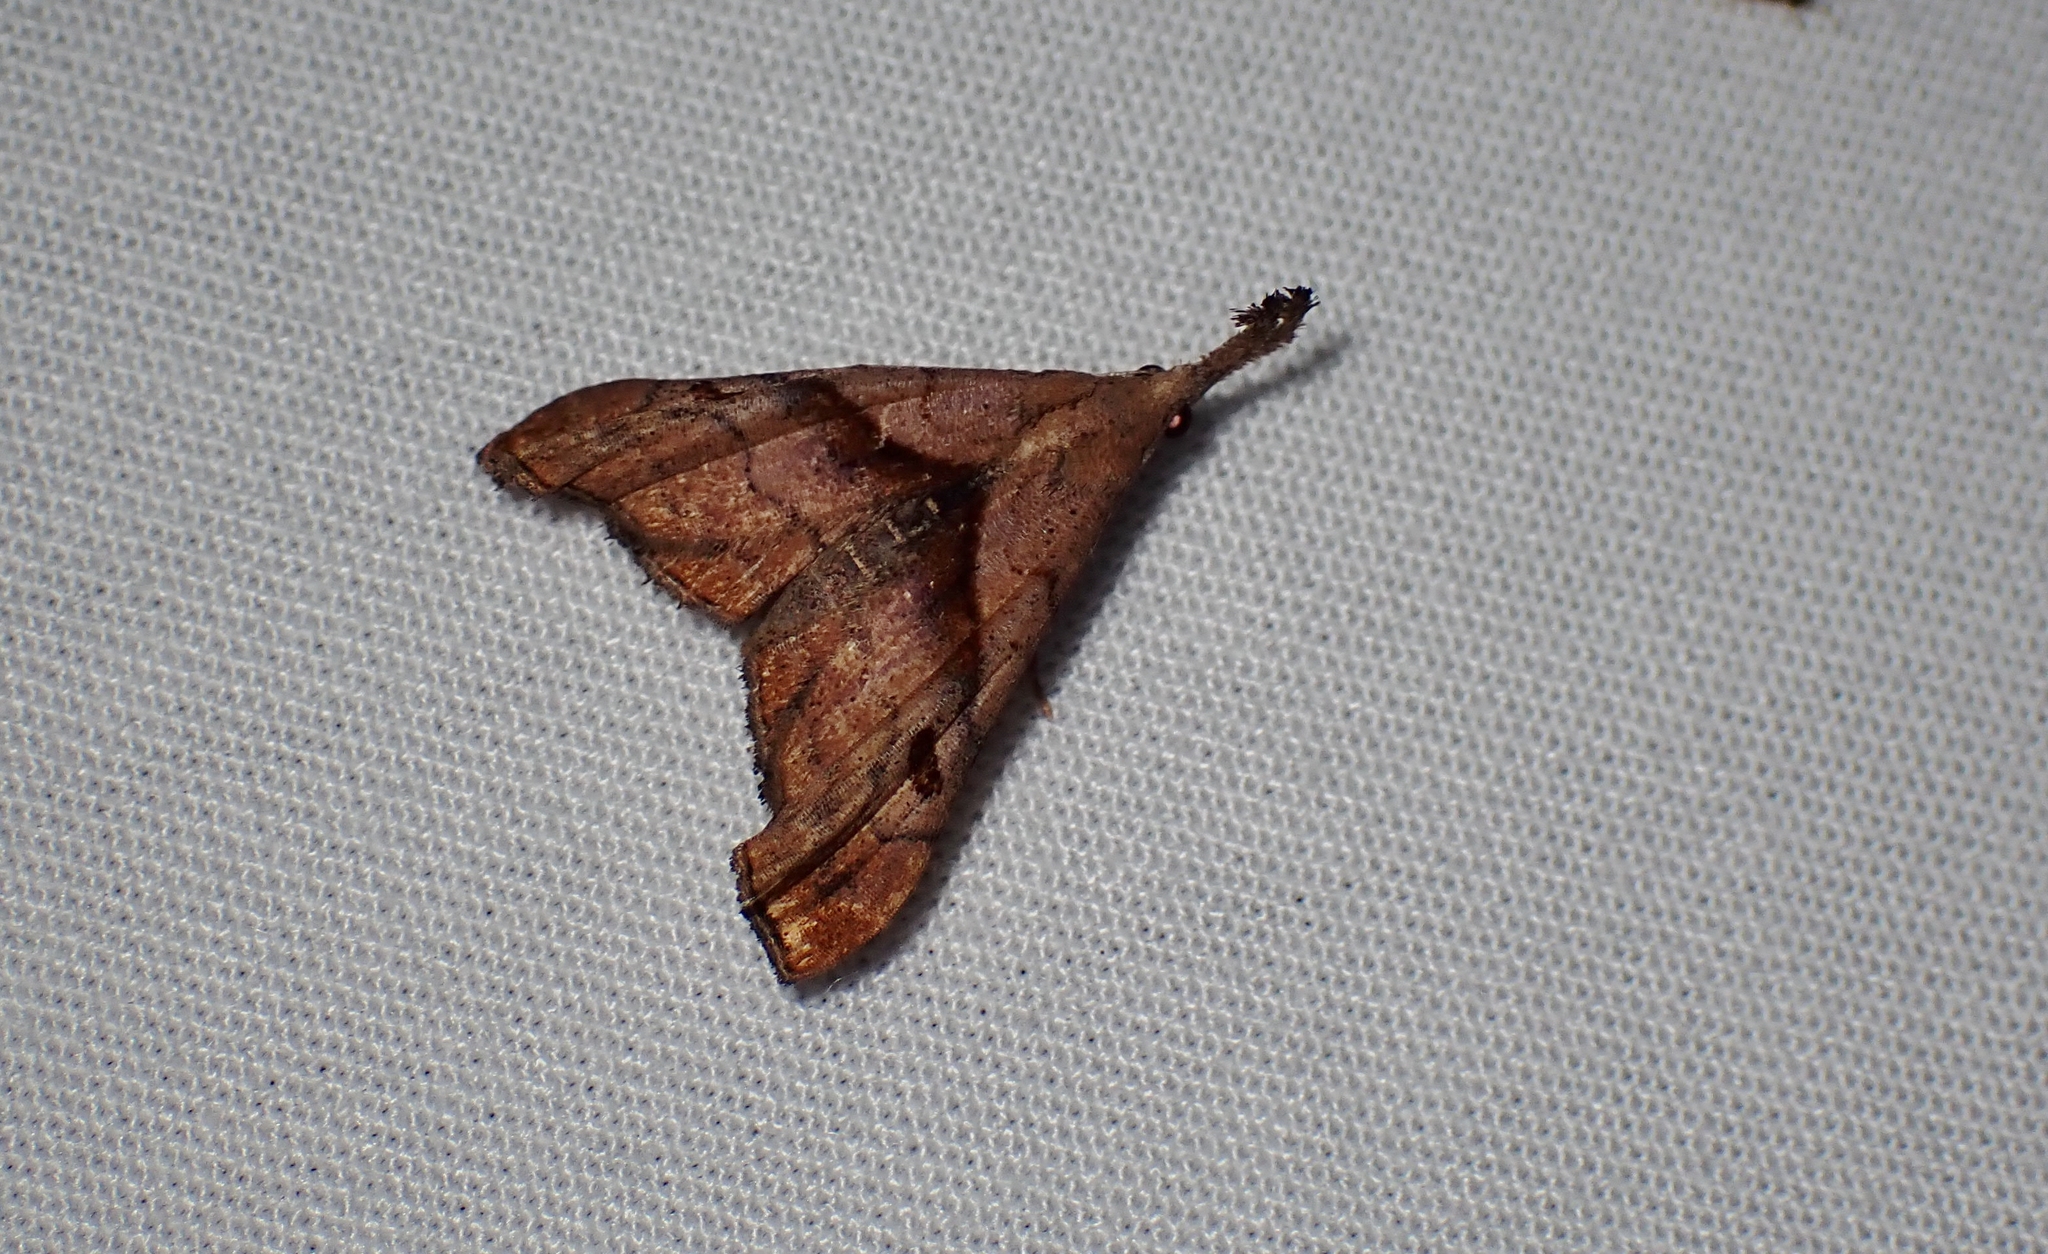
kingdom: Animalia
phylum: Arthropoda
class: Insecta
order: Lepidoptera
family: Erebidae
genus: Palthis
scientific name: Palthis angulalis
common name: Dark-spotted palthis moth
